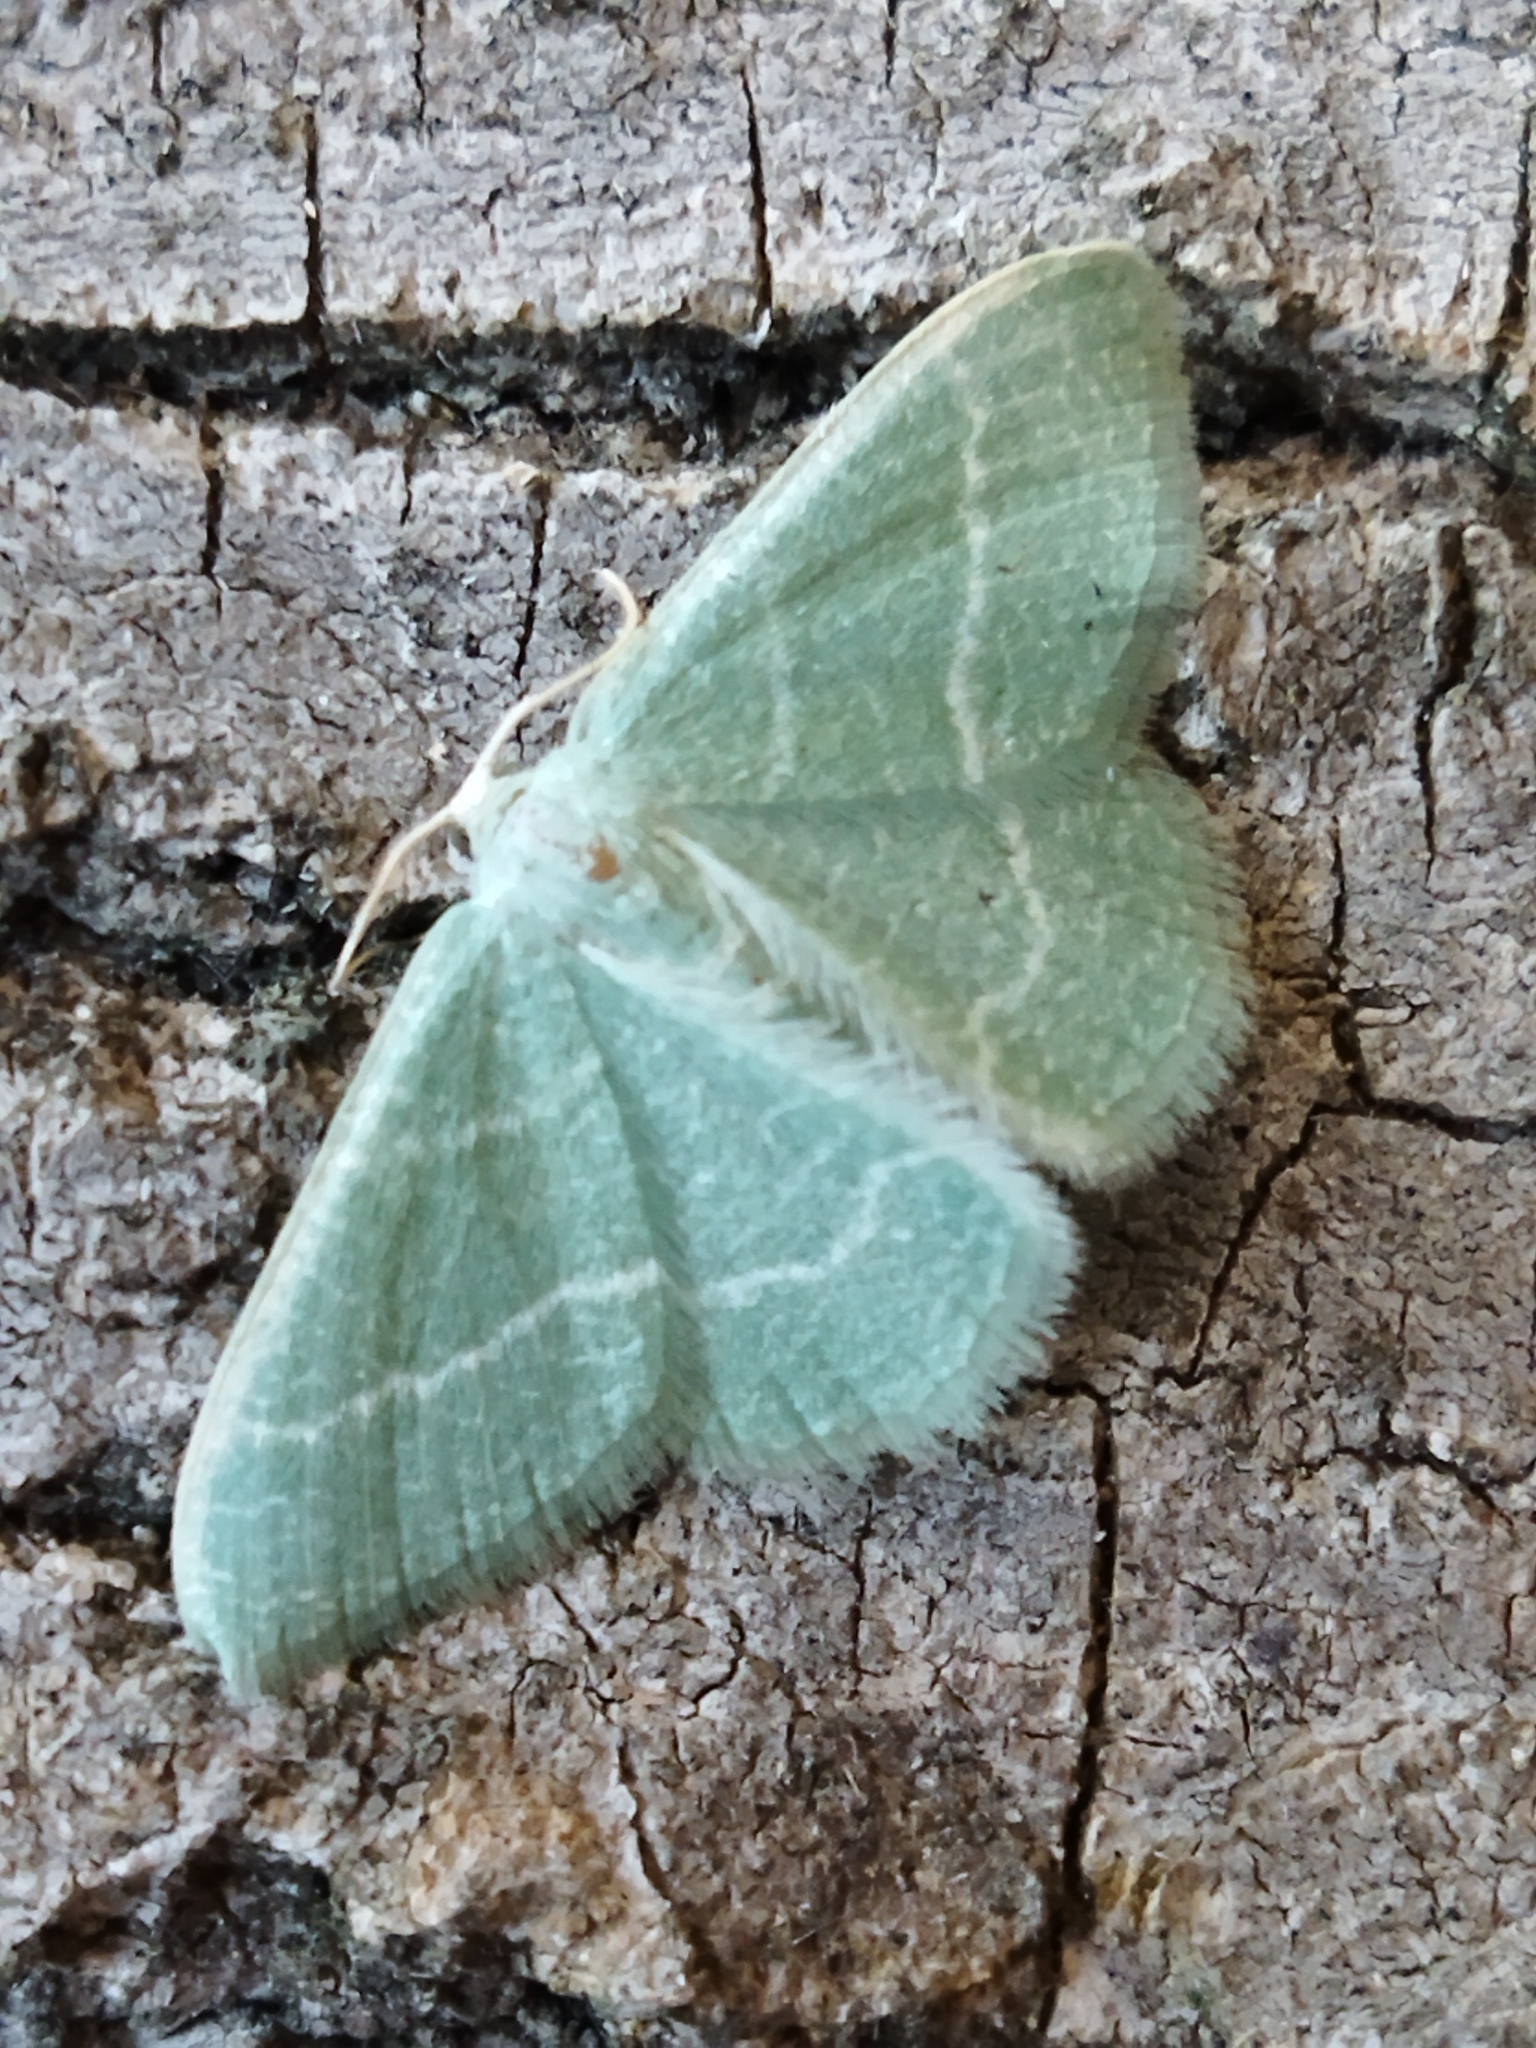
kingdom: Animalia
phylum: Arthropoda
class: Insecta
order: Lepidoptera
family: Geometridae
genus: Chlorissa
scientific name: Chlorissa etruscaria
